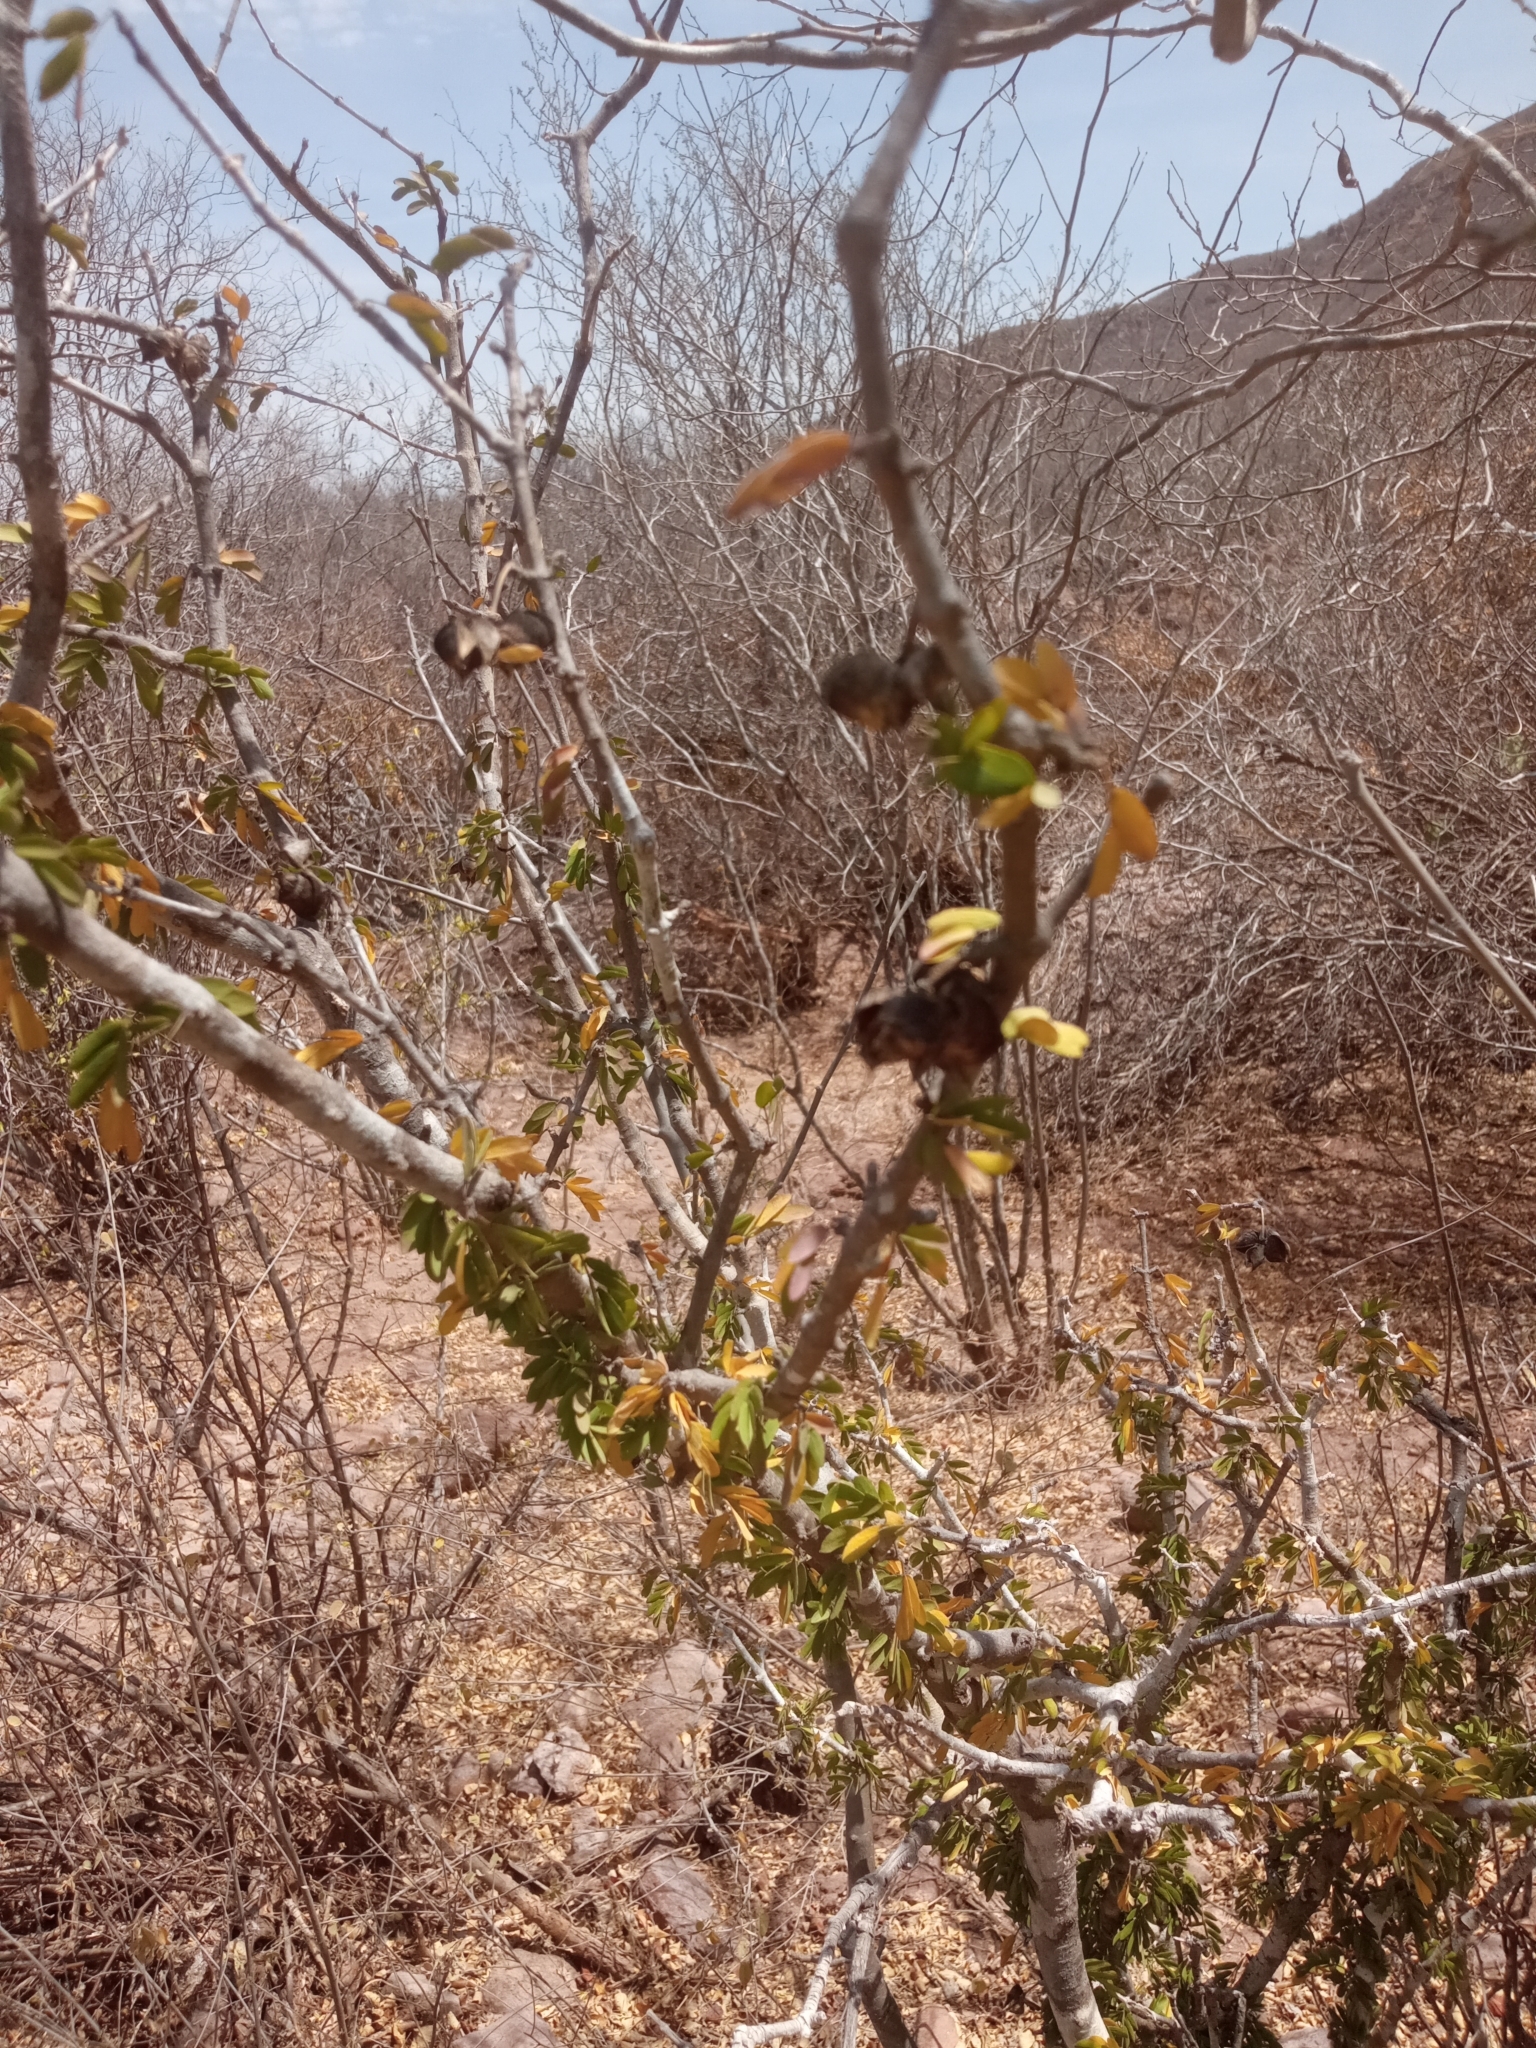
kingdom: Plantae
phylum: Tracheophyta
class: Magnoliopsida
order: Zygophyllales
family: Zygophyllaceae
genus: Guaiacum
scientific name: Guaiacum coulteri
